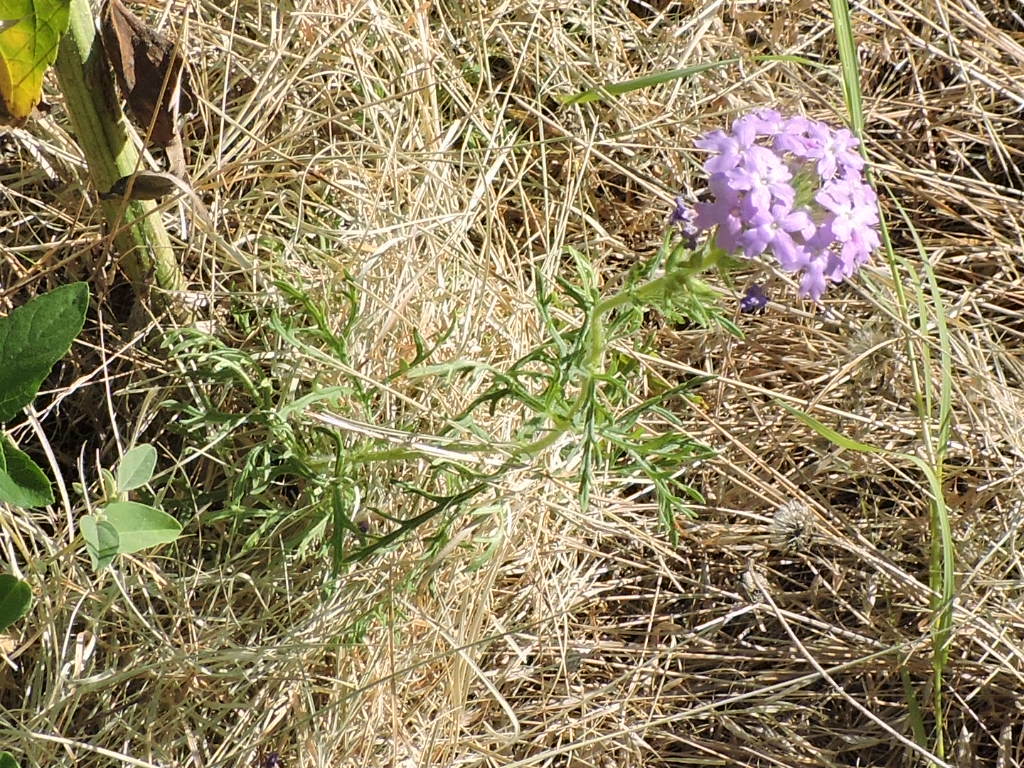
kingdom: Plantae
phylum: Tracheophyta
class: Magnoliopsida
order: Lamiales
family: Verbenaceae
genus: Verbena
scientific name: Verbena bipinnatifida
